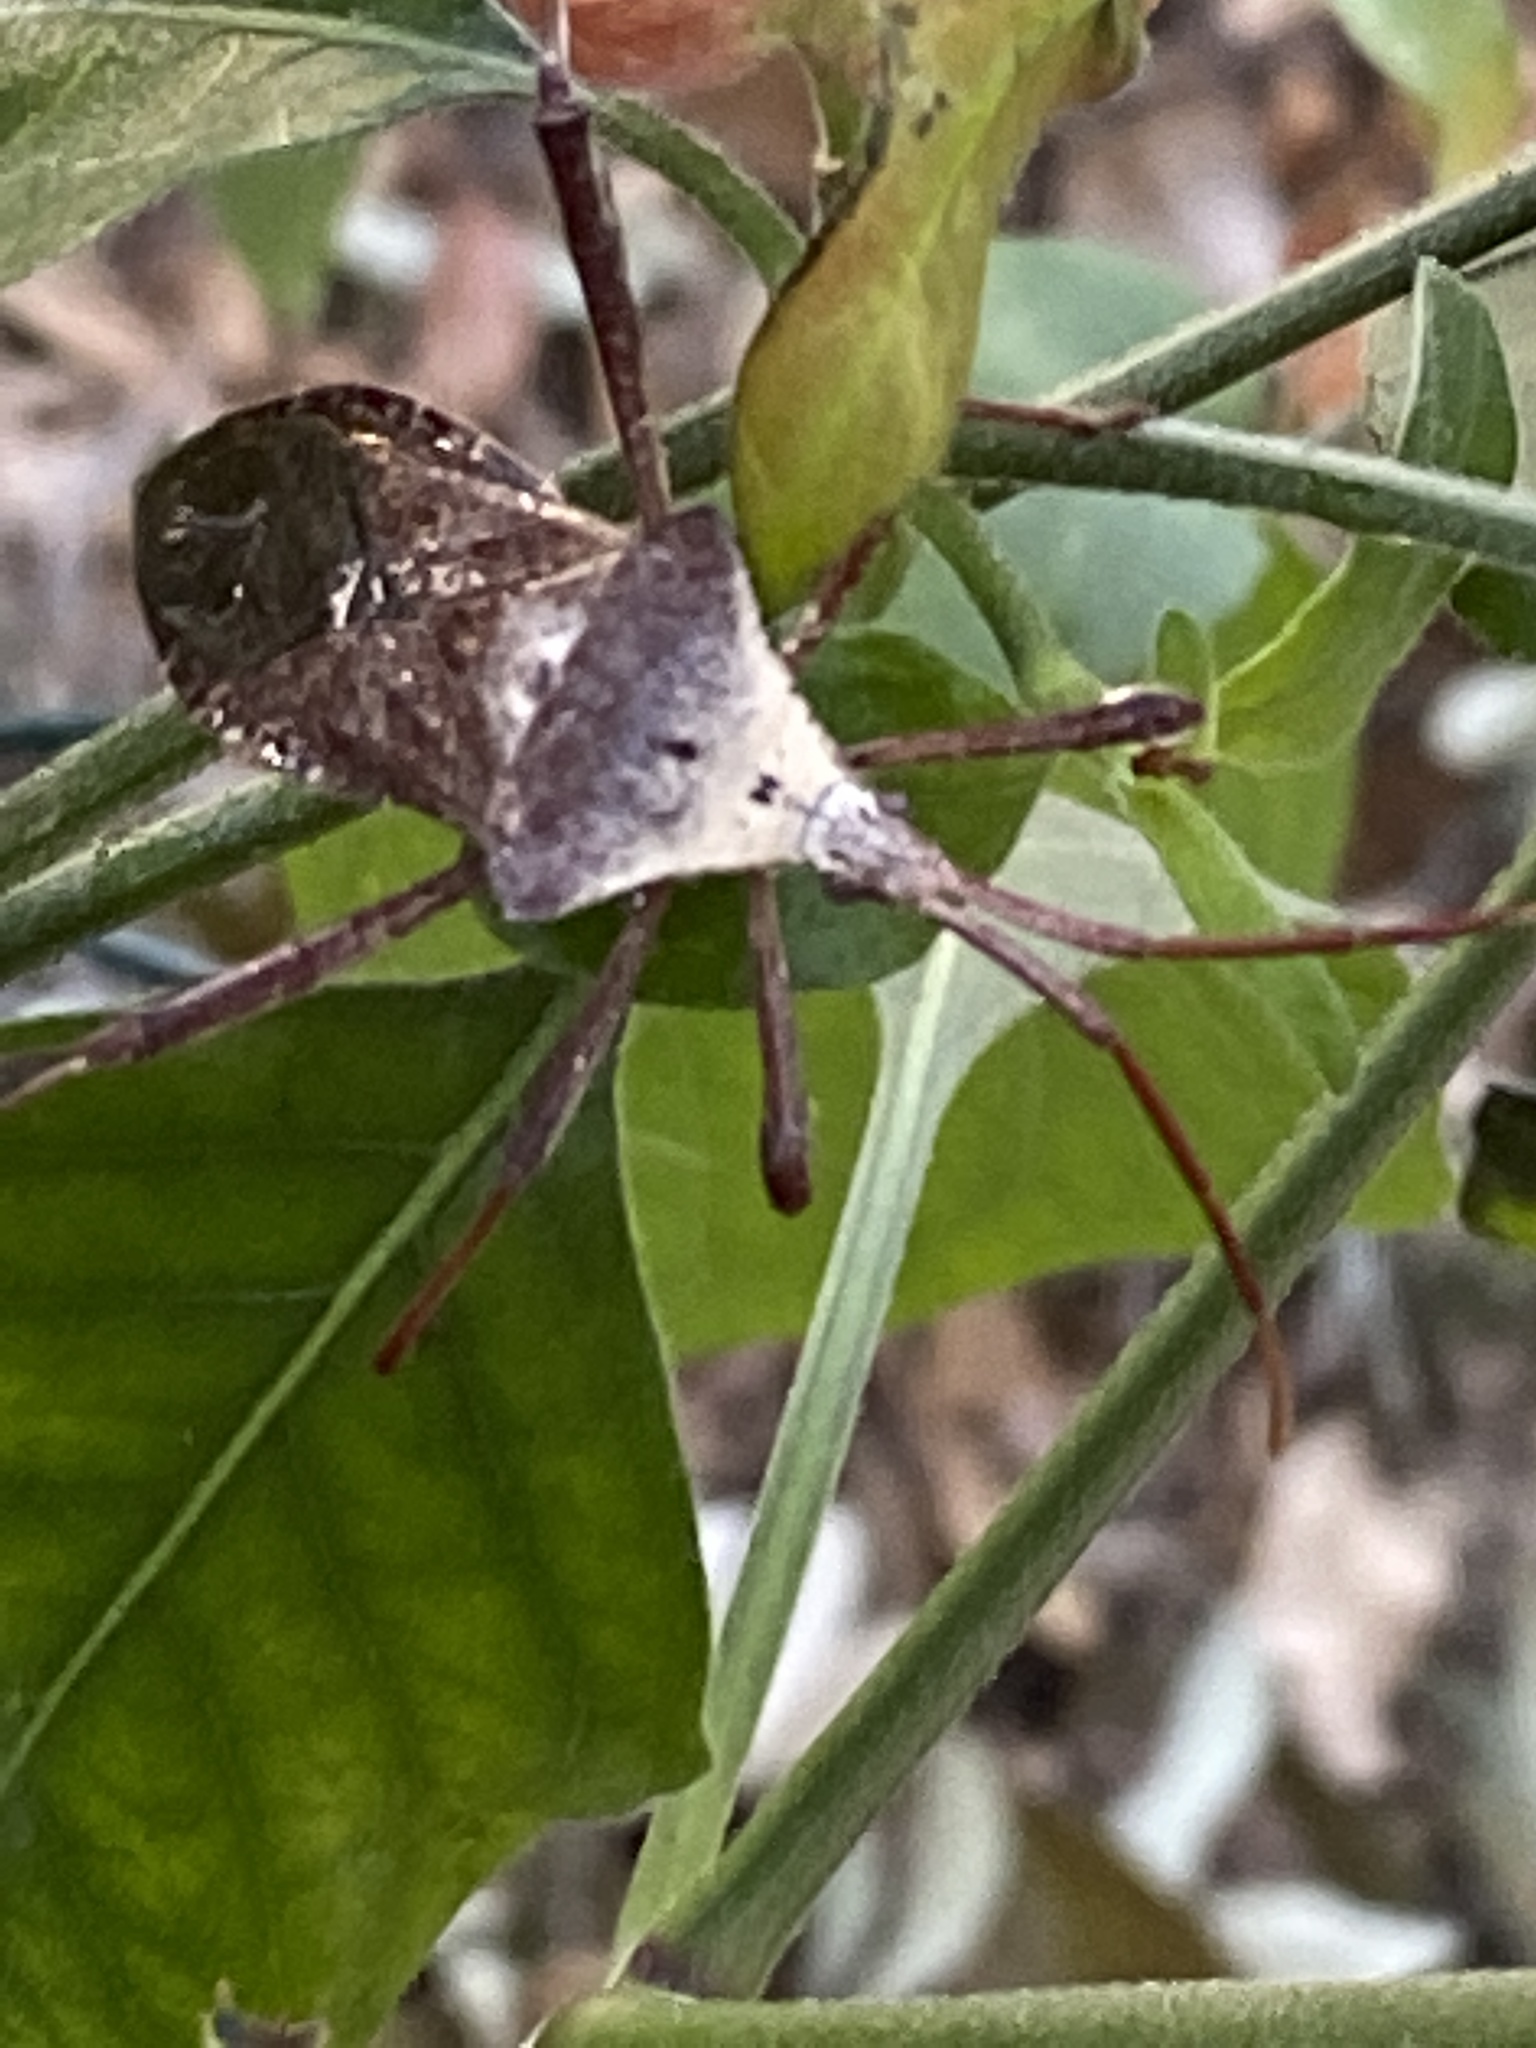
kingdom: Animalia
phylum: Arthropoda
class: Insecta
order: Hemiptera
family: Coreidae
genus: Acanthocephala
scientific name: Acanthocephala declivis
